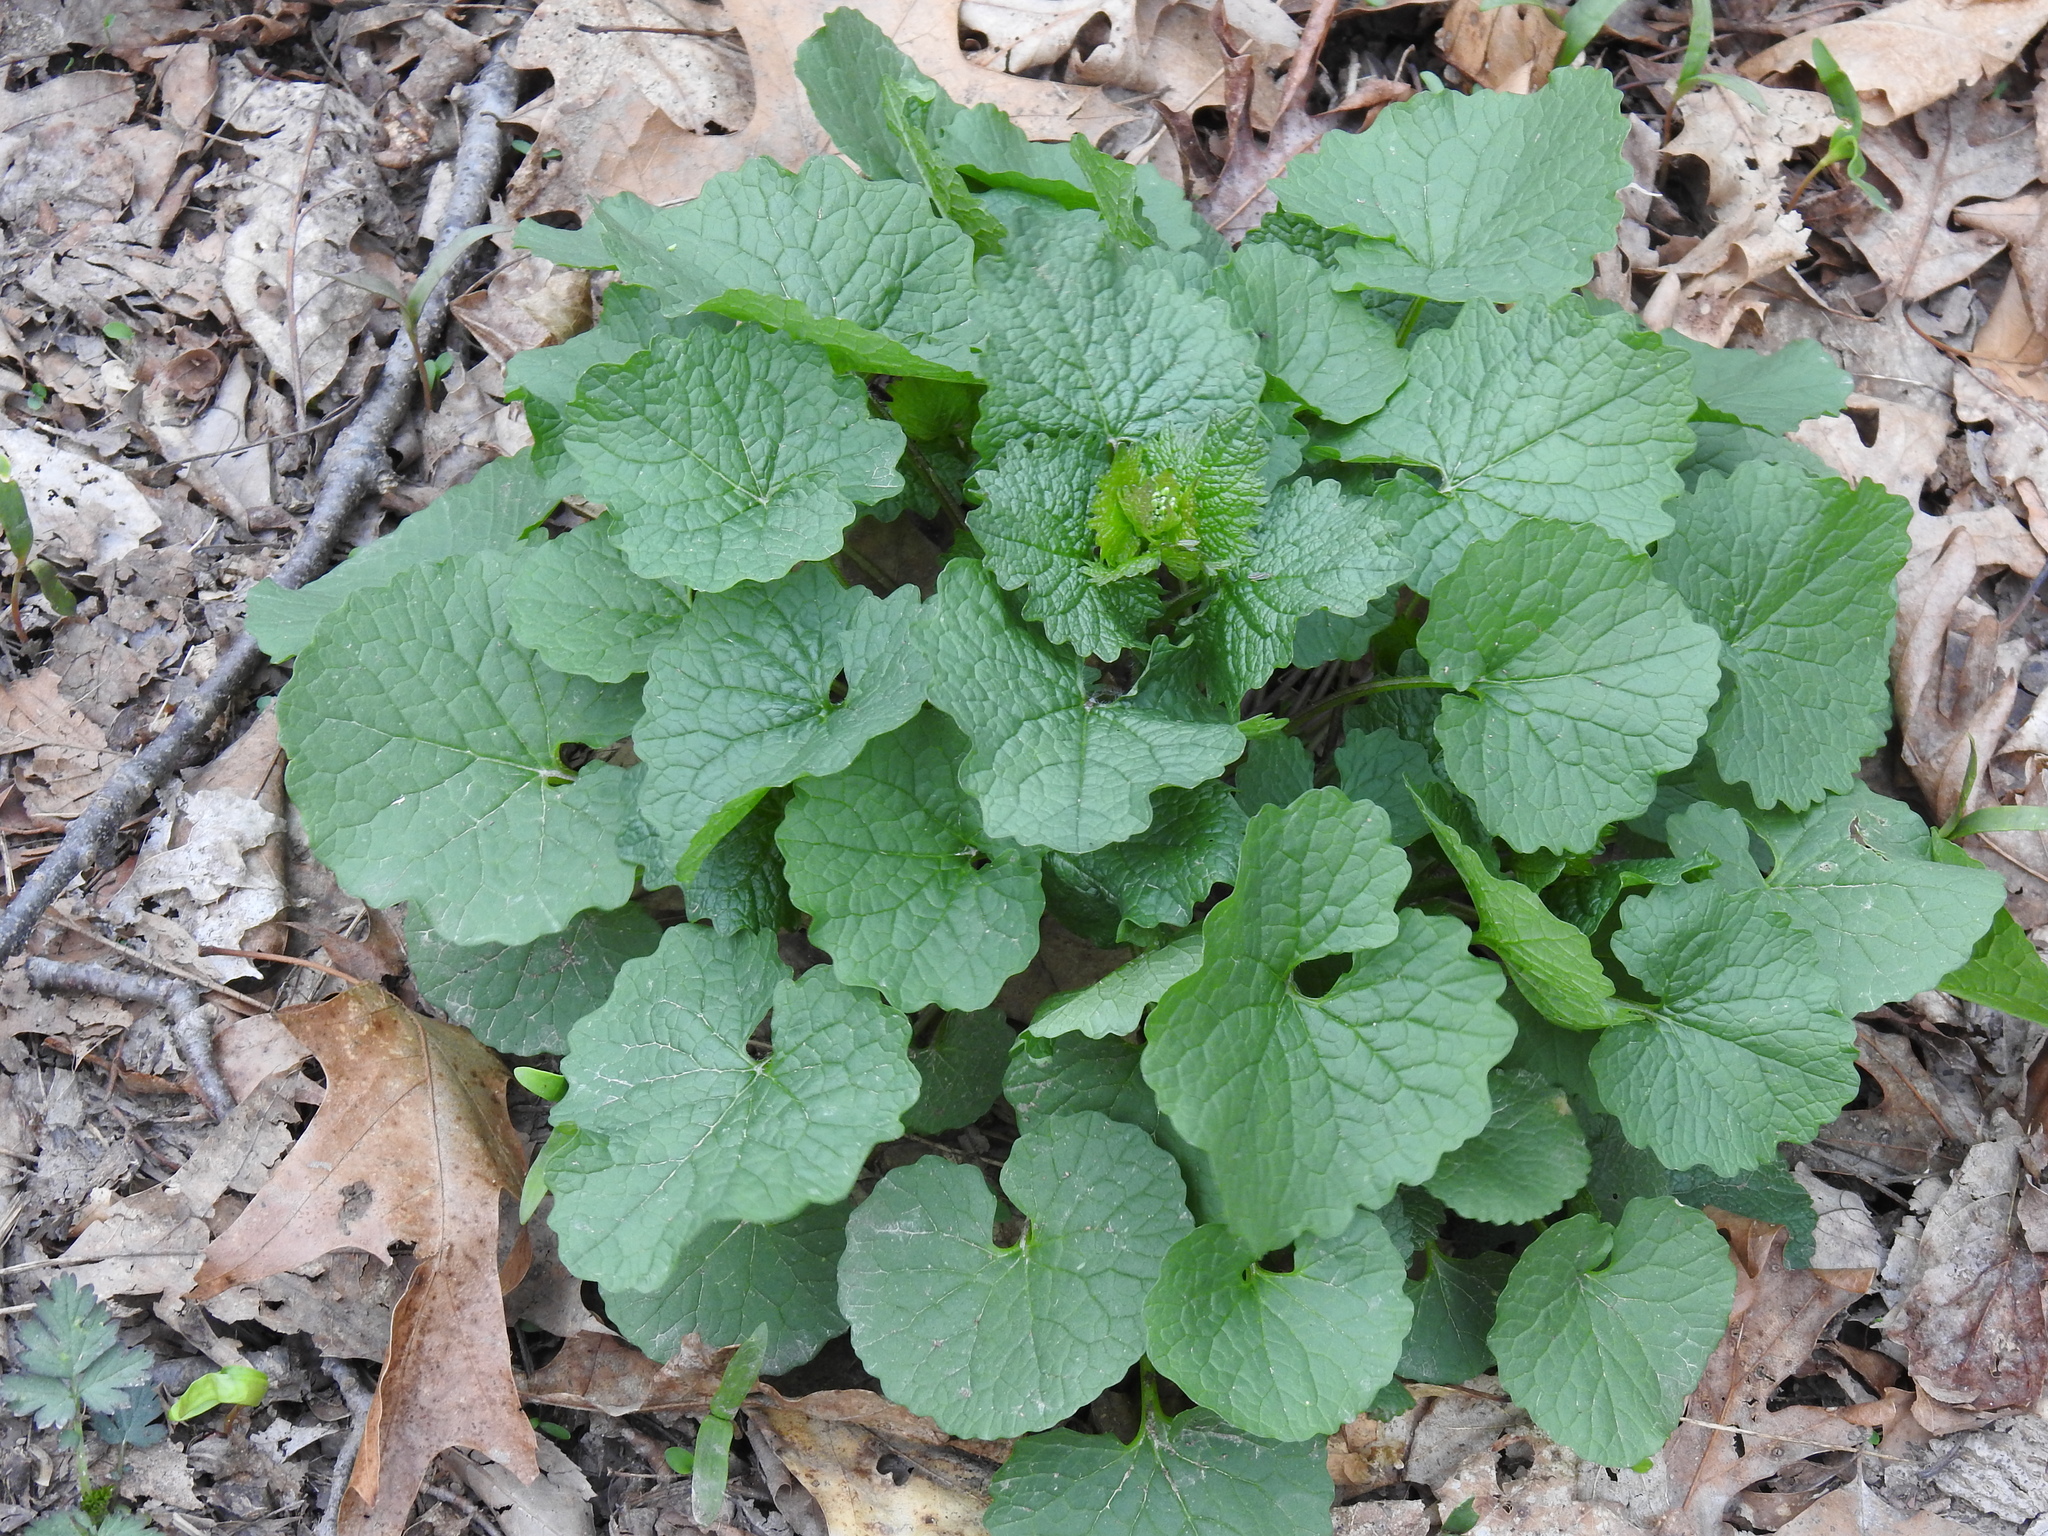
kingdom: Plantae
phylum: Tracheophyta
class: Magnoliopsida
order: Brassicales
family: Brassicaceae
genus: Alliaria
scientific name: Alliaria petiolata
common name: Garlic mustard
